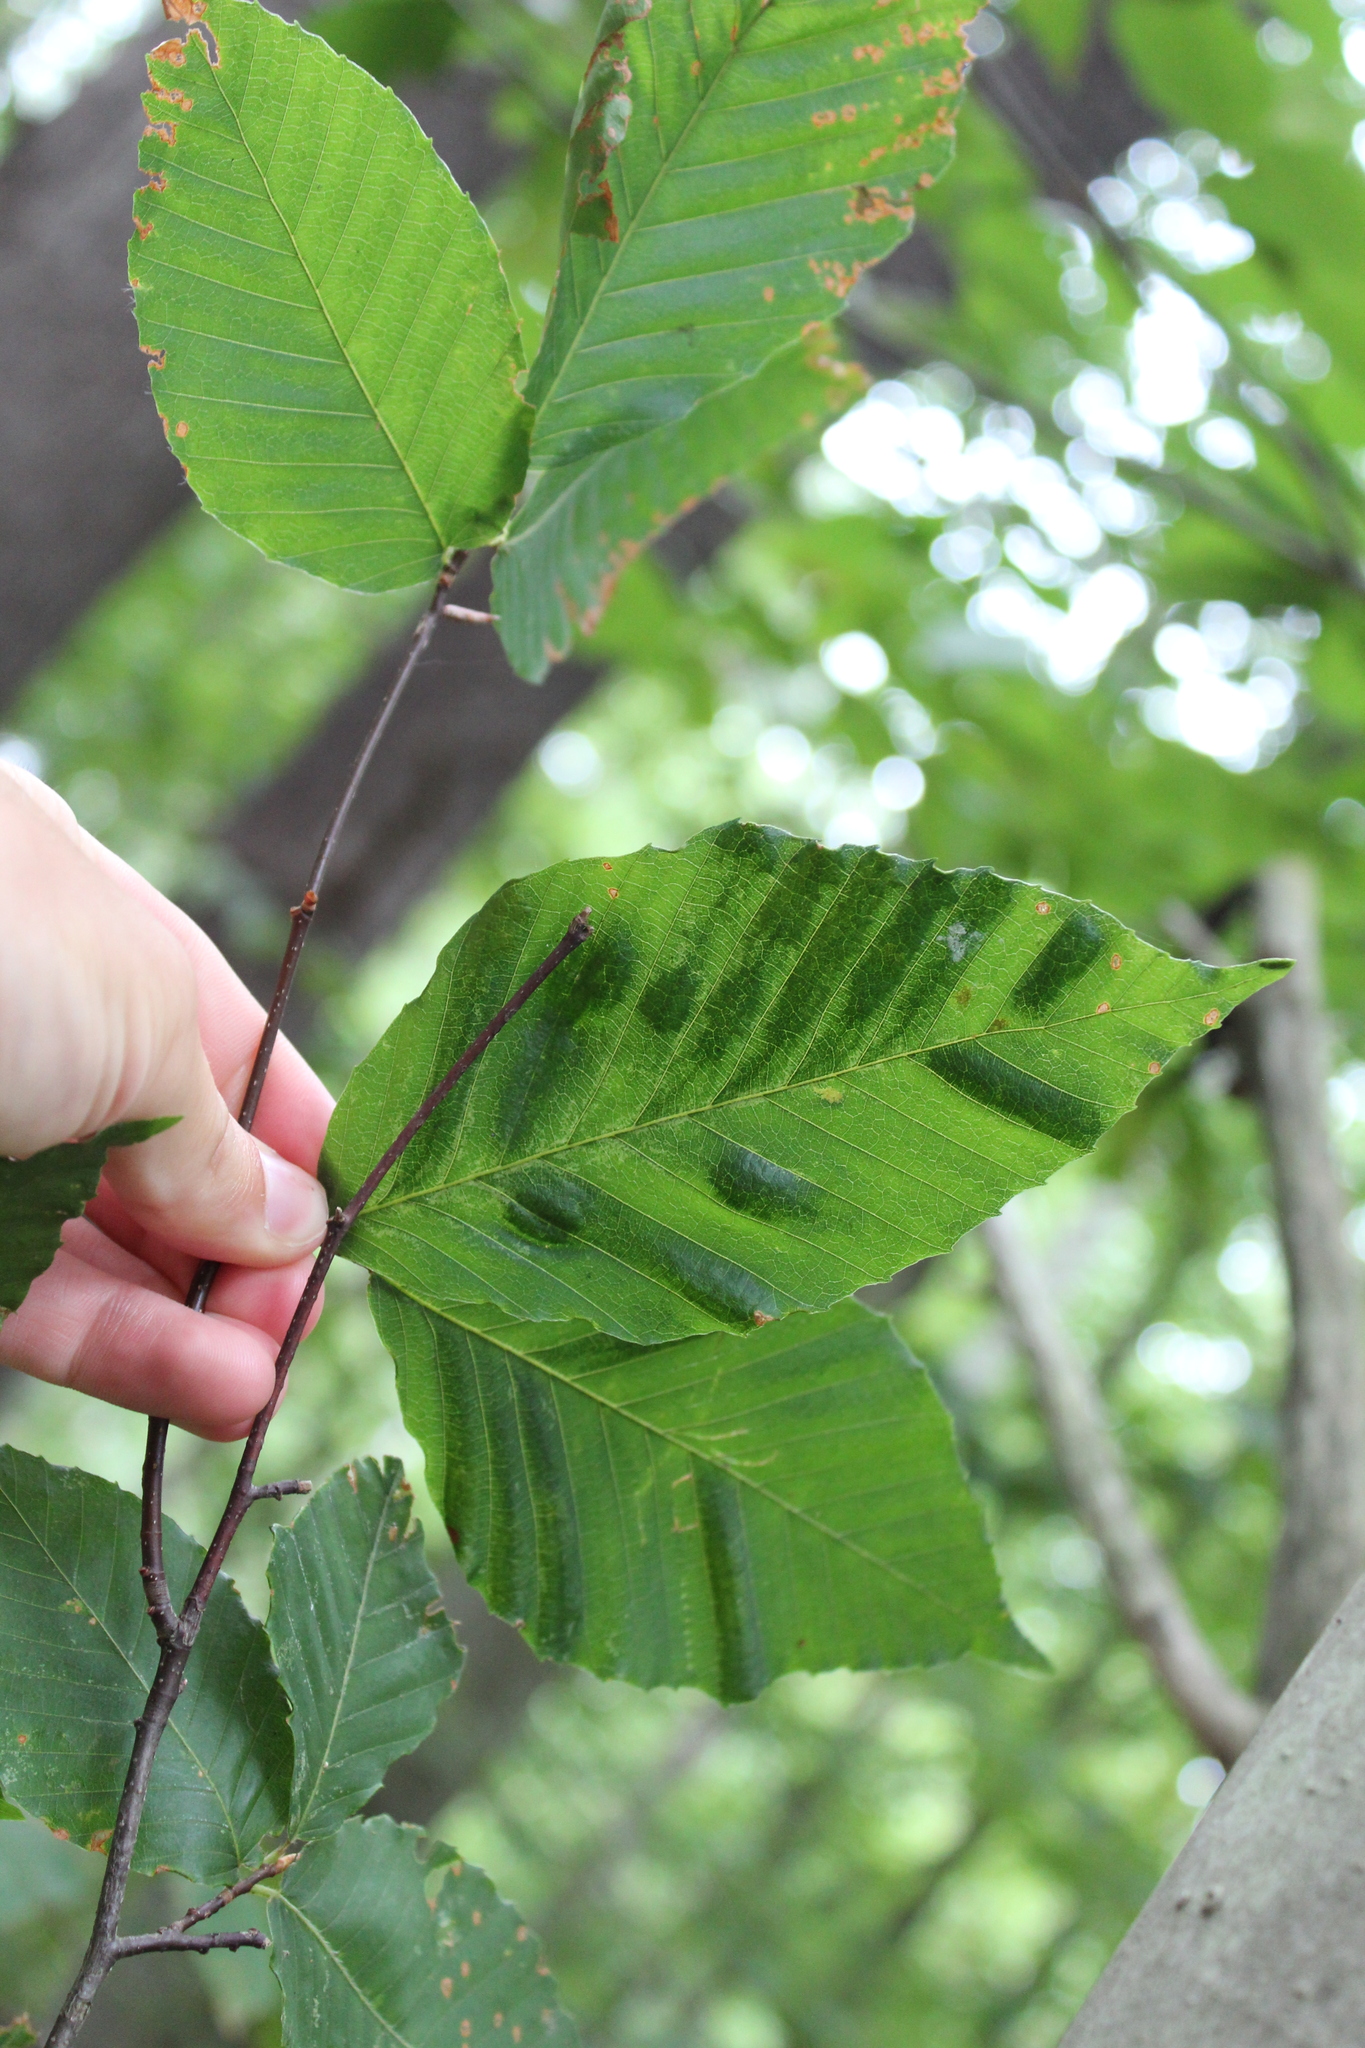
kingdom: Plantae
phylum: Tracheophyta
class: Magnoliopsida
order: Fagales
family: Fagaceae
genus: Fagus
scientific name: Fagus grandifolia
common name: American beech
